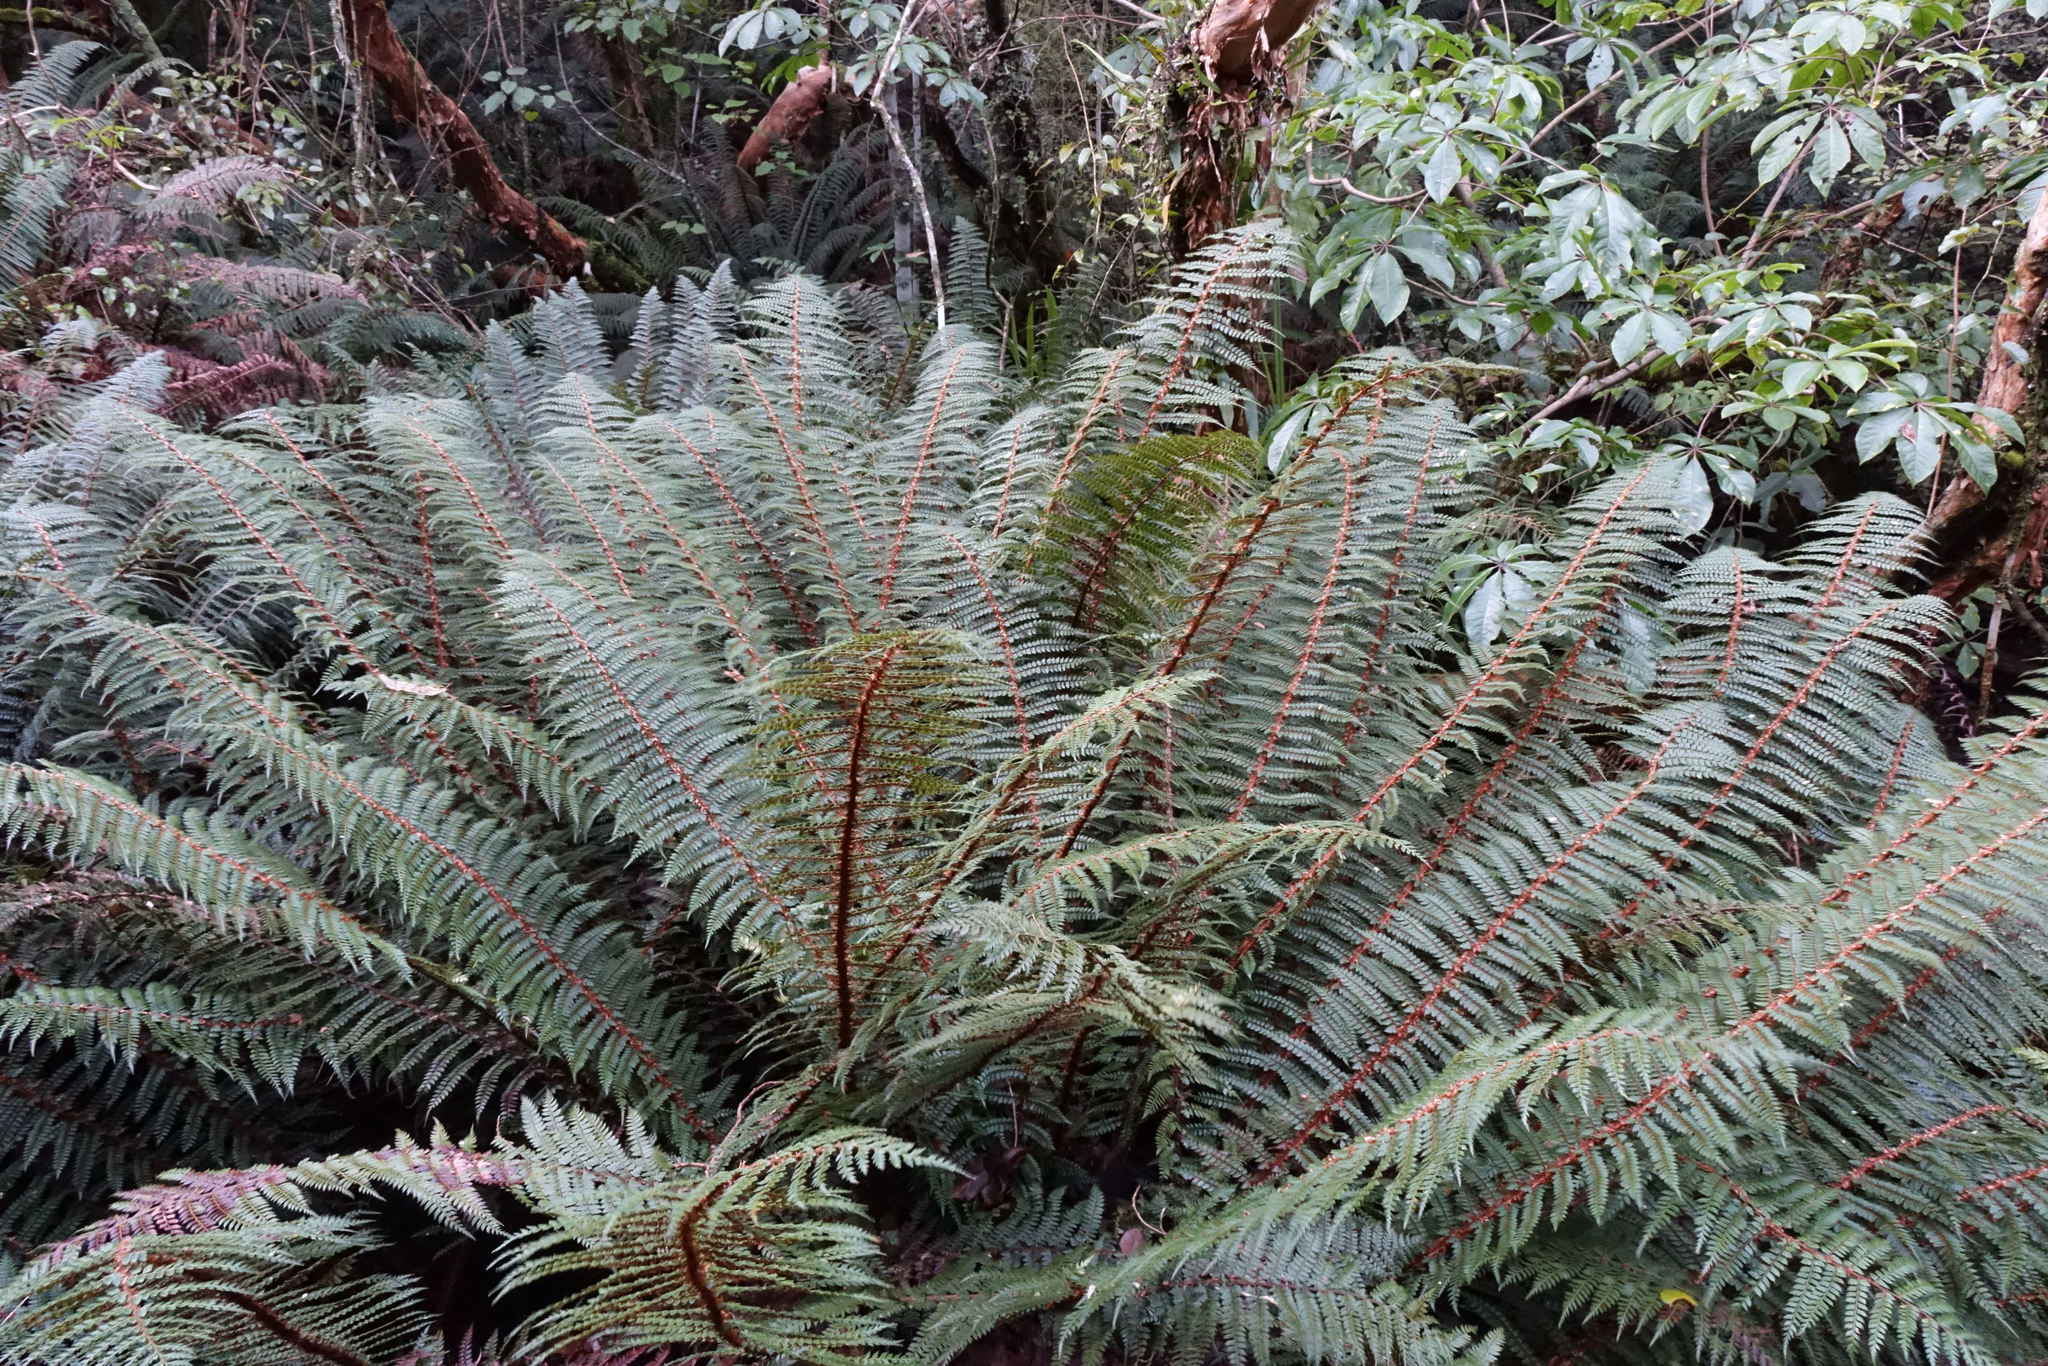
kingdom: Plantae
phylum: Tracheophyta
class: Polypodiopsida
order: Polypodiales
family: Dryopteridaceae
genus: Polystichum
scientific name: Polystichum vestitum
